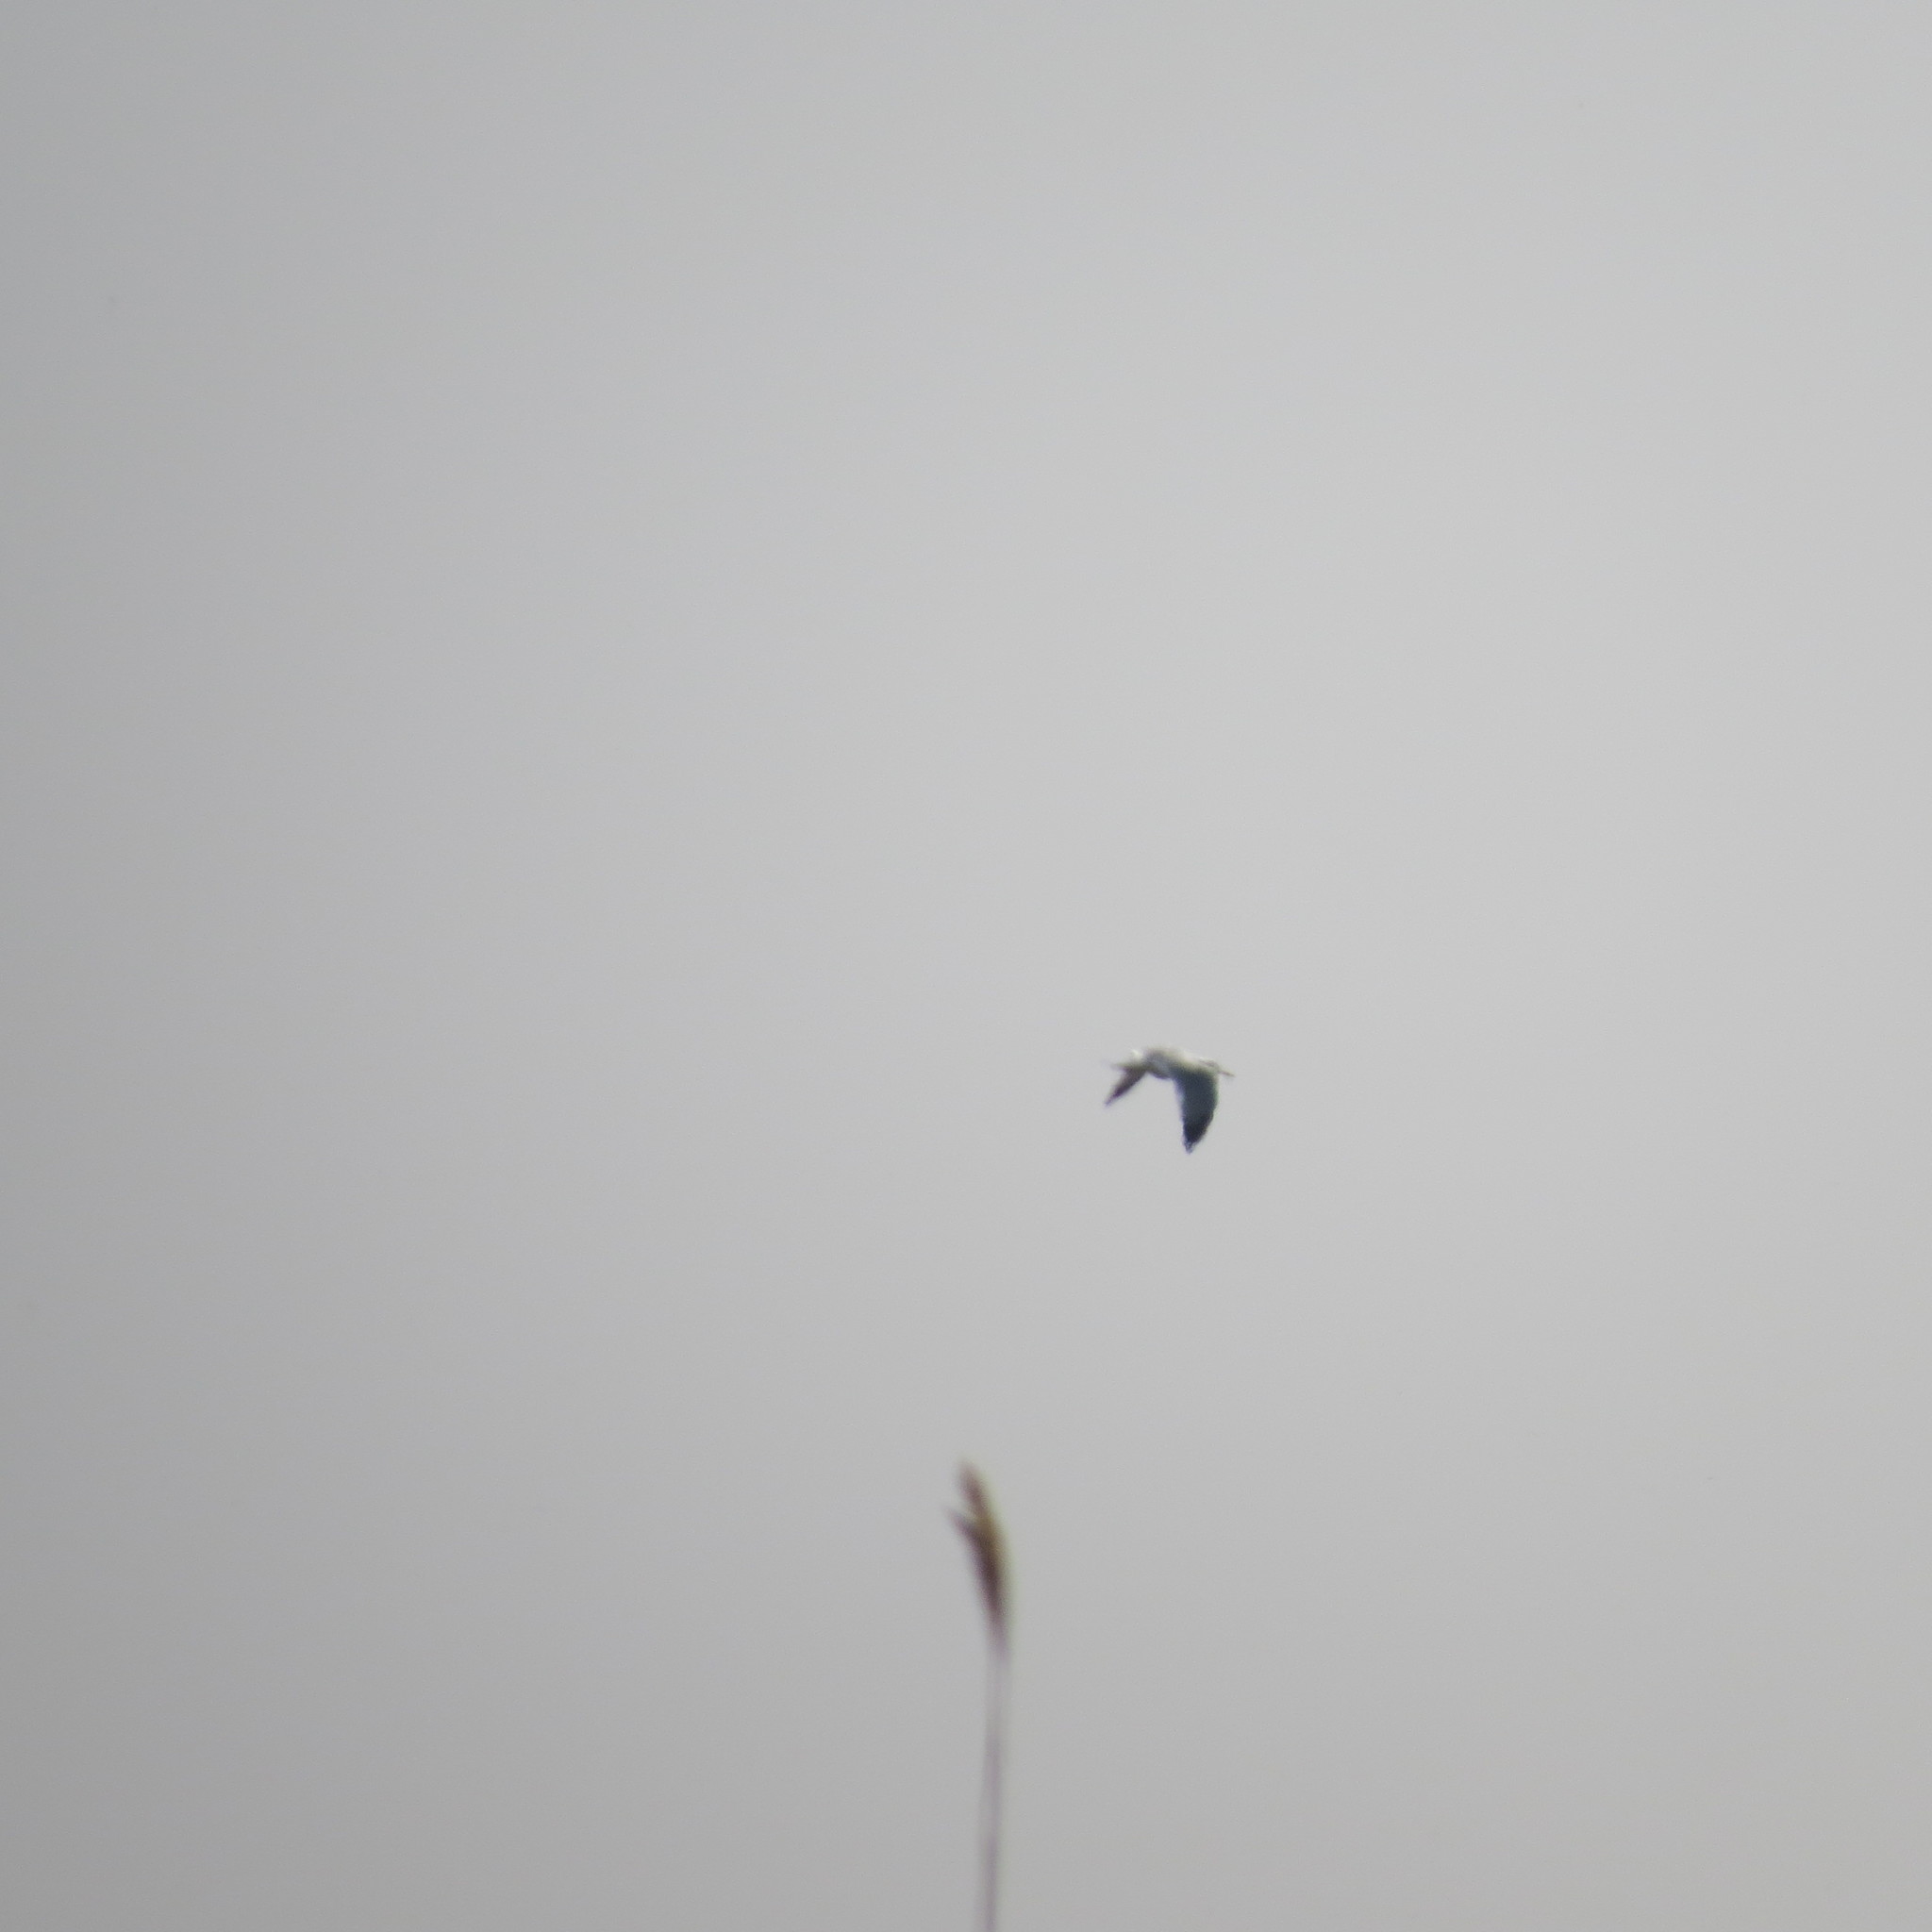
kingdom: Animalia
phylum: Chordata
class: Aves
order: Charadriiformes
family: Laridae
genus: Larus
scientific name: Larus
